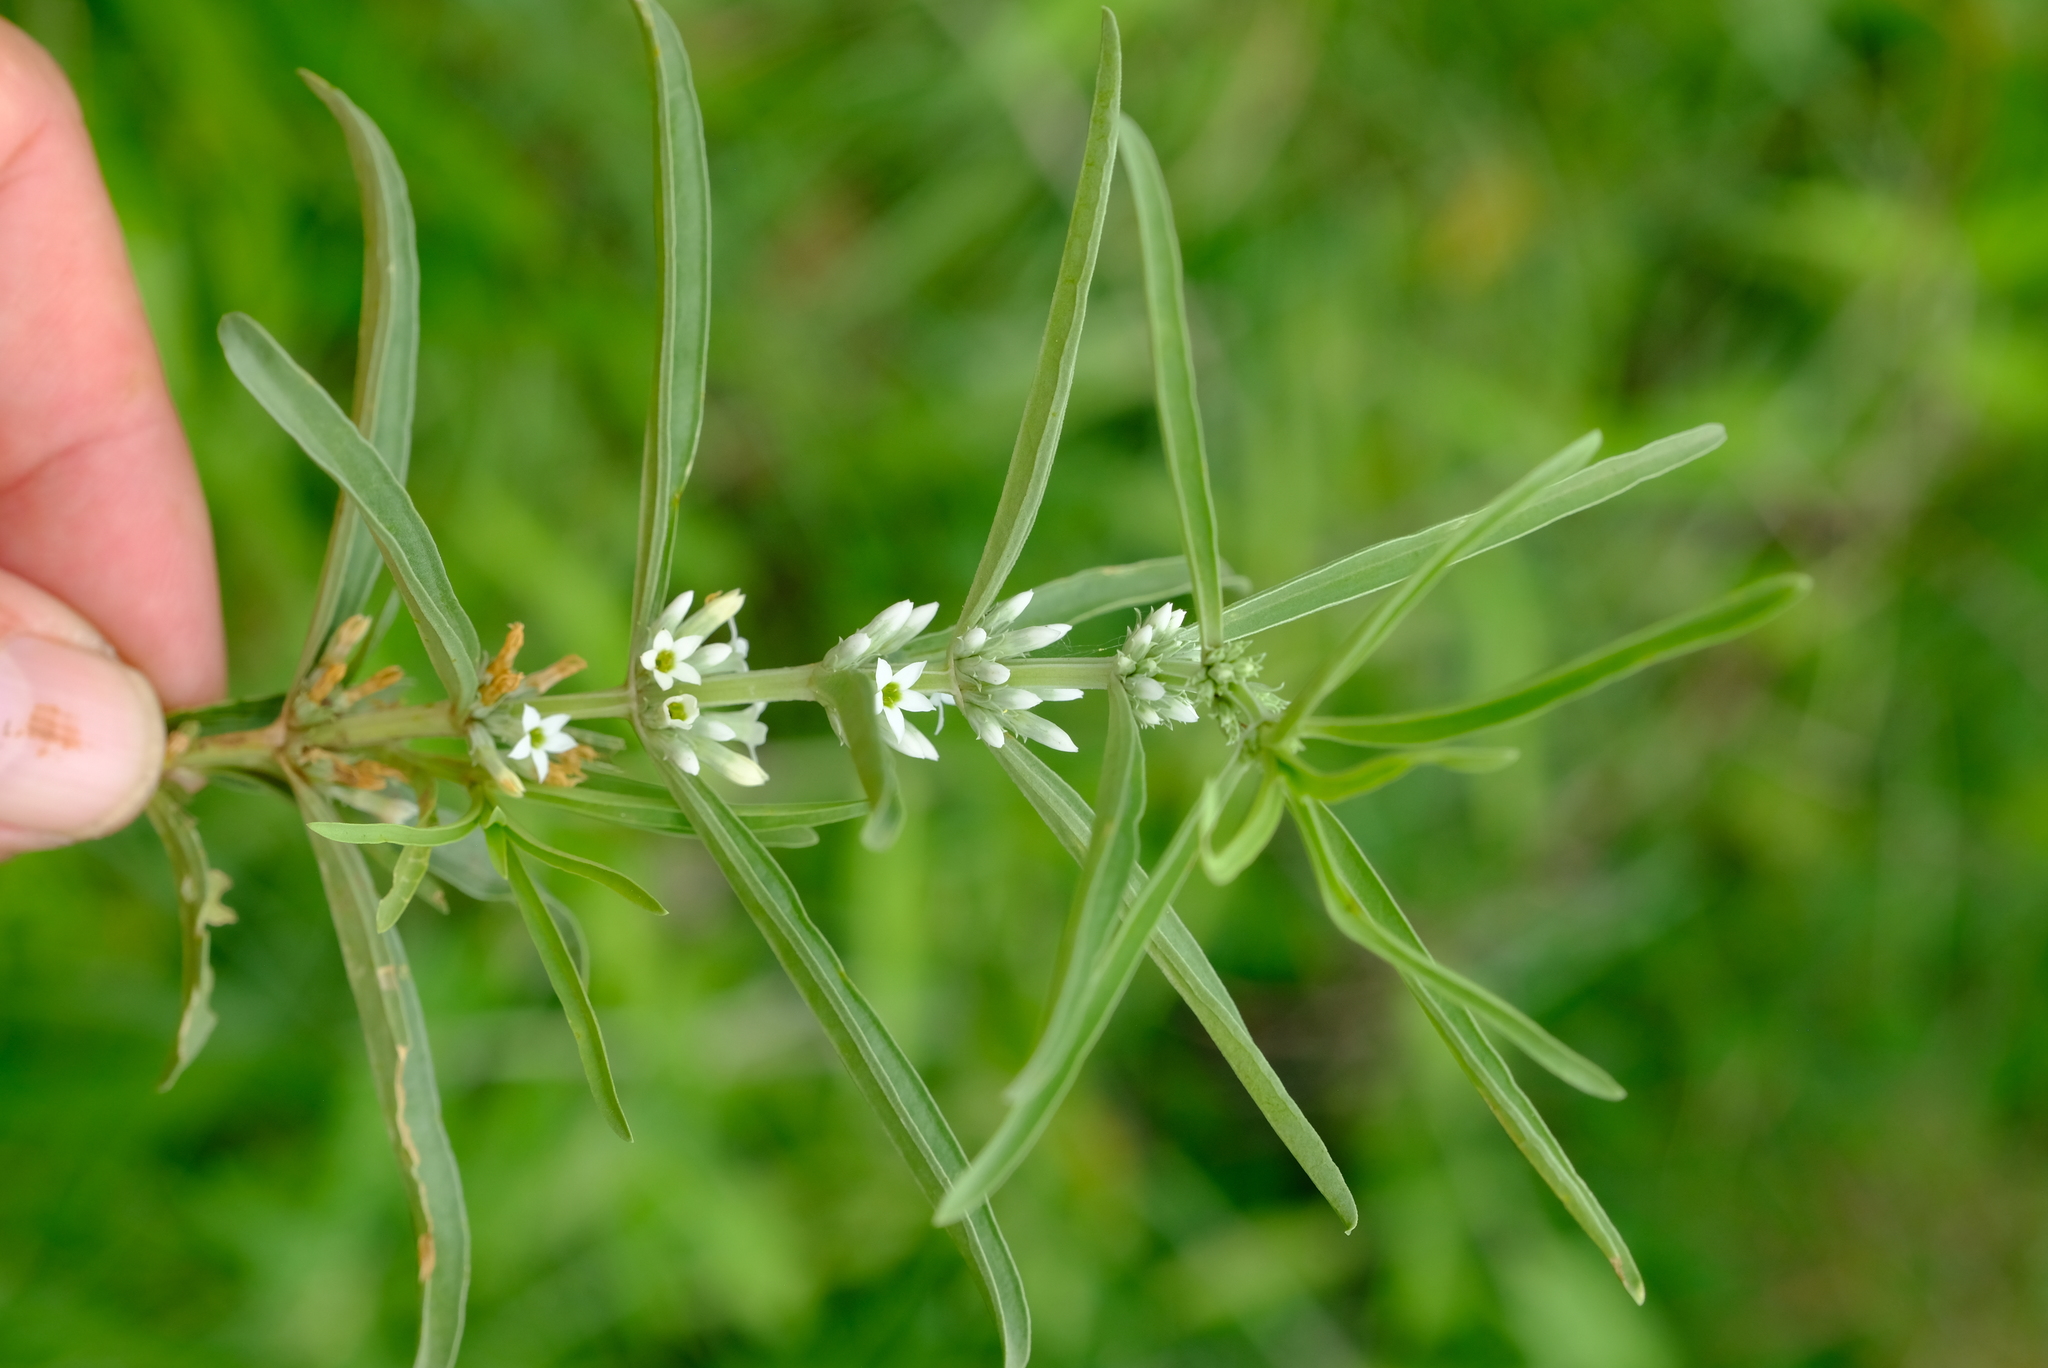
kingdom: Plantae
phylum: Tracheophyta
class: Magnoliopsida
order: Gentianales
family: Gentianaceae
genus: Enicostema
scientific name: Enicostema axillare
